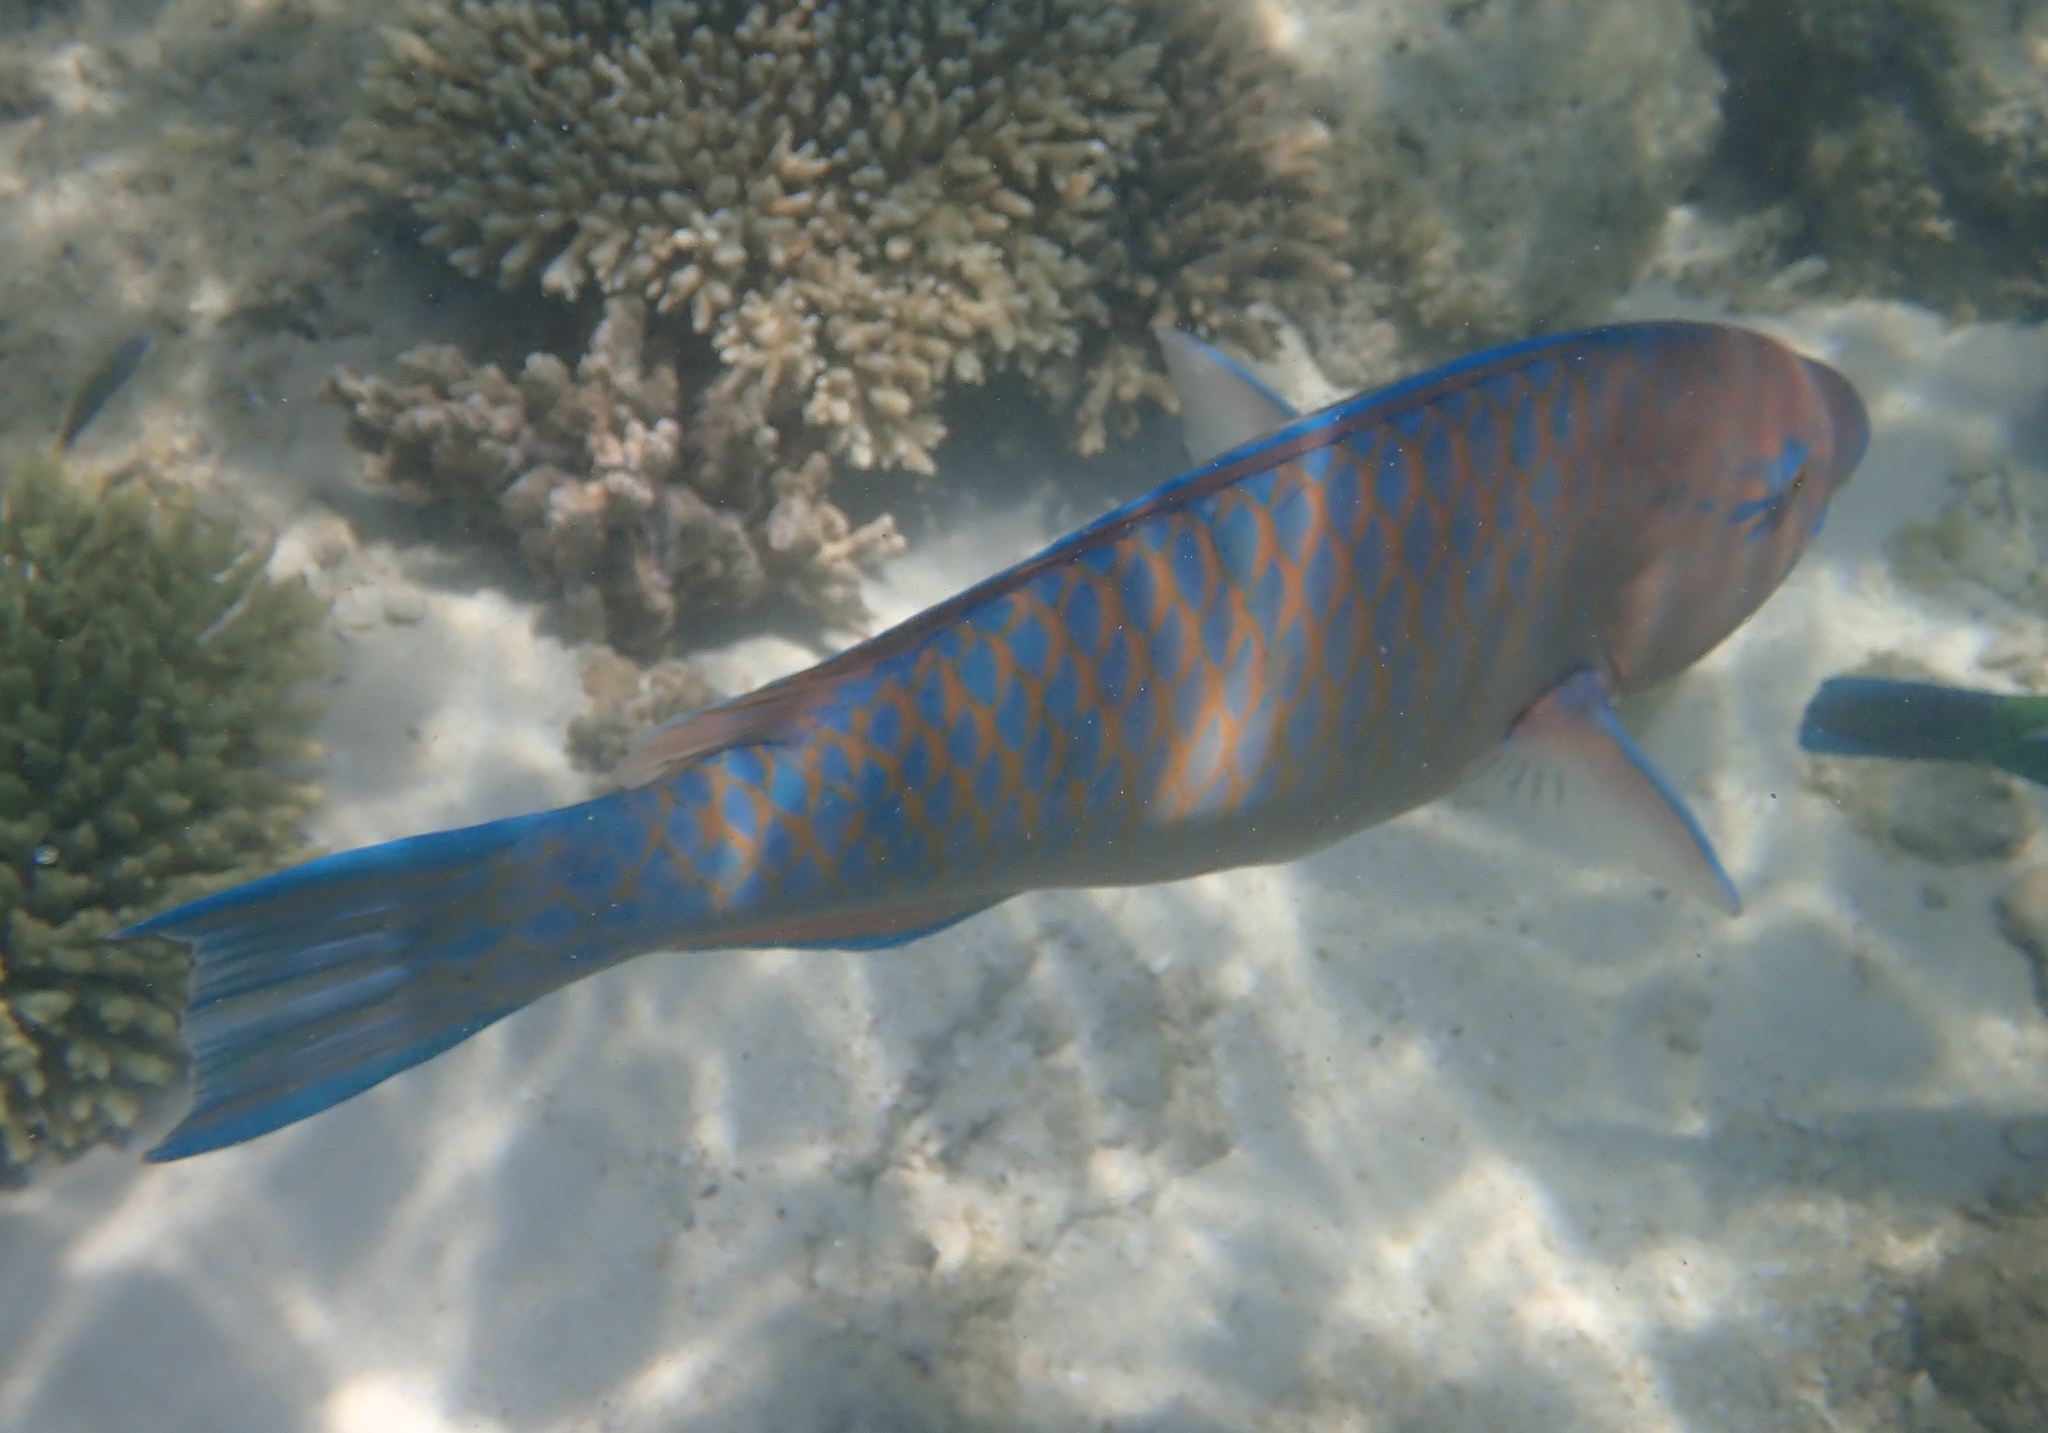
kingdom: Animalia
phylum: Chordata
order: Perciformes
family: Scaridae
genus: Scarus
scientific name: Scarus ghobban
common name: Blue-barred parrotfish
